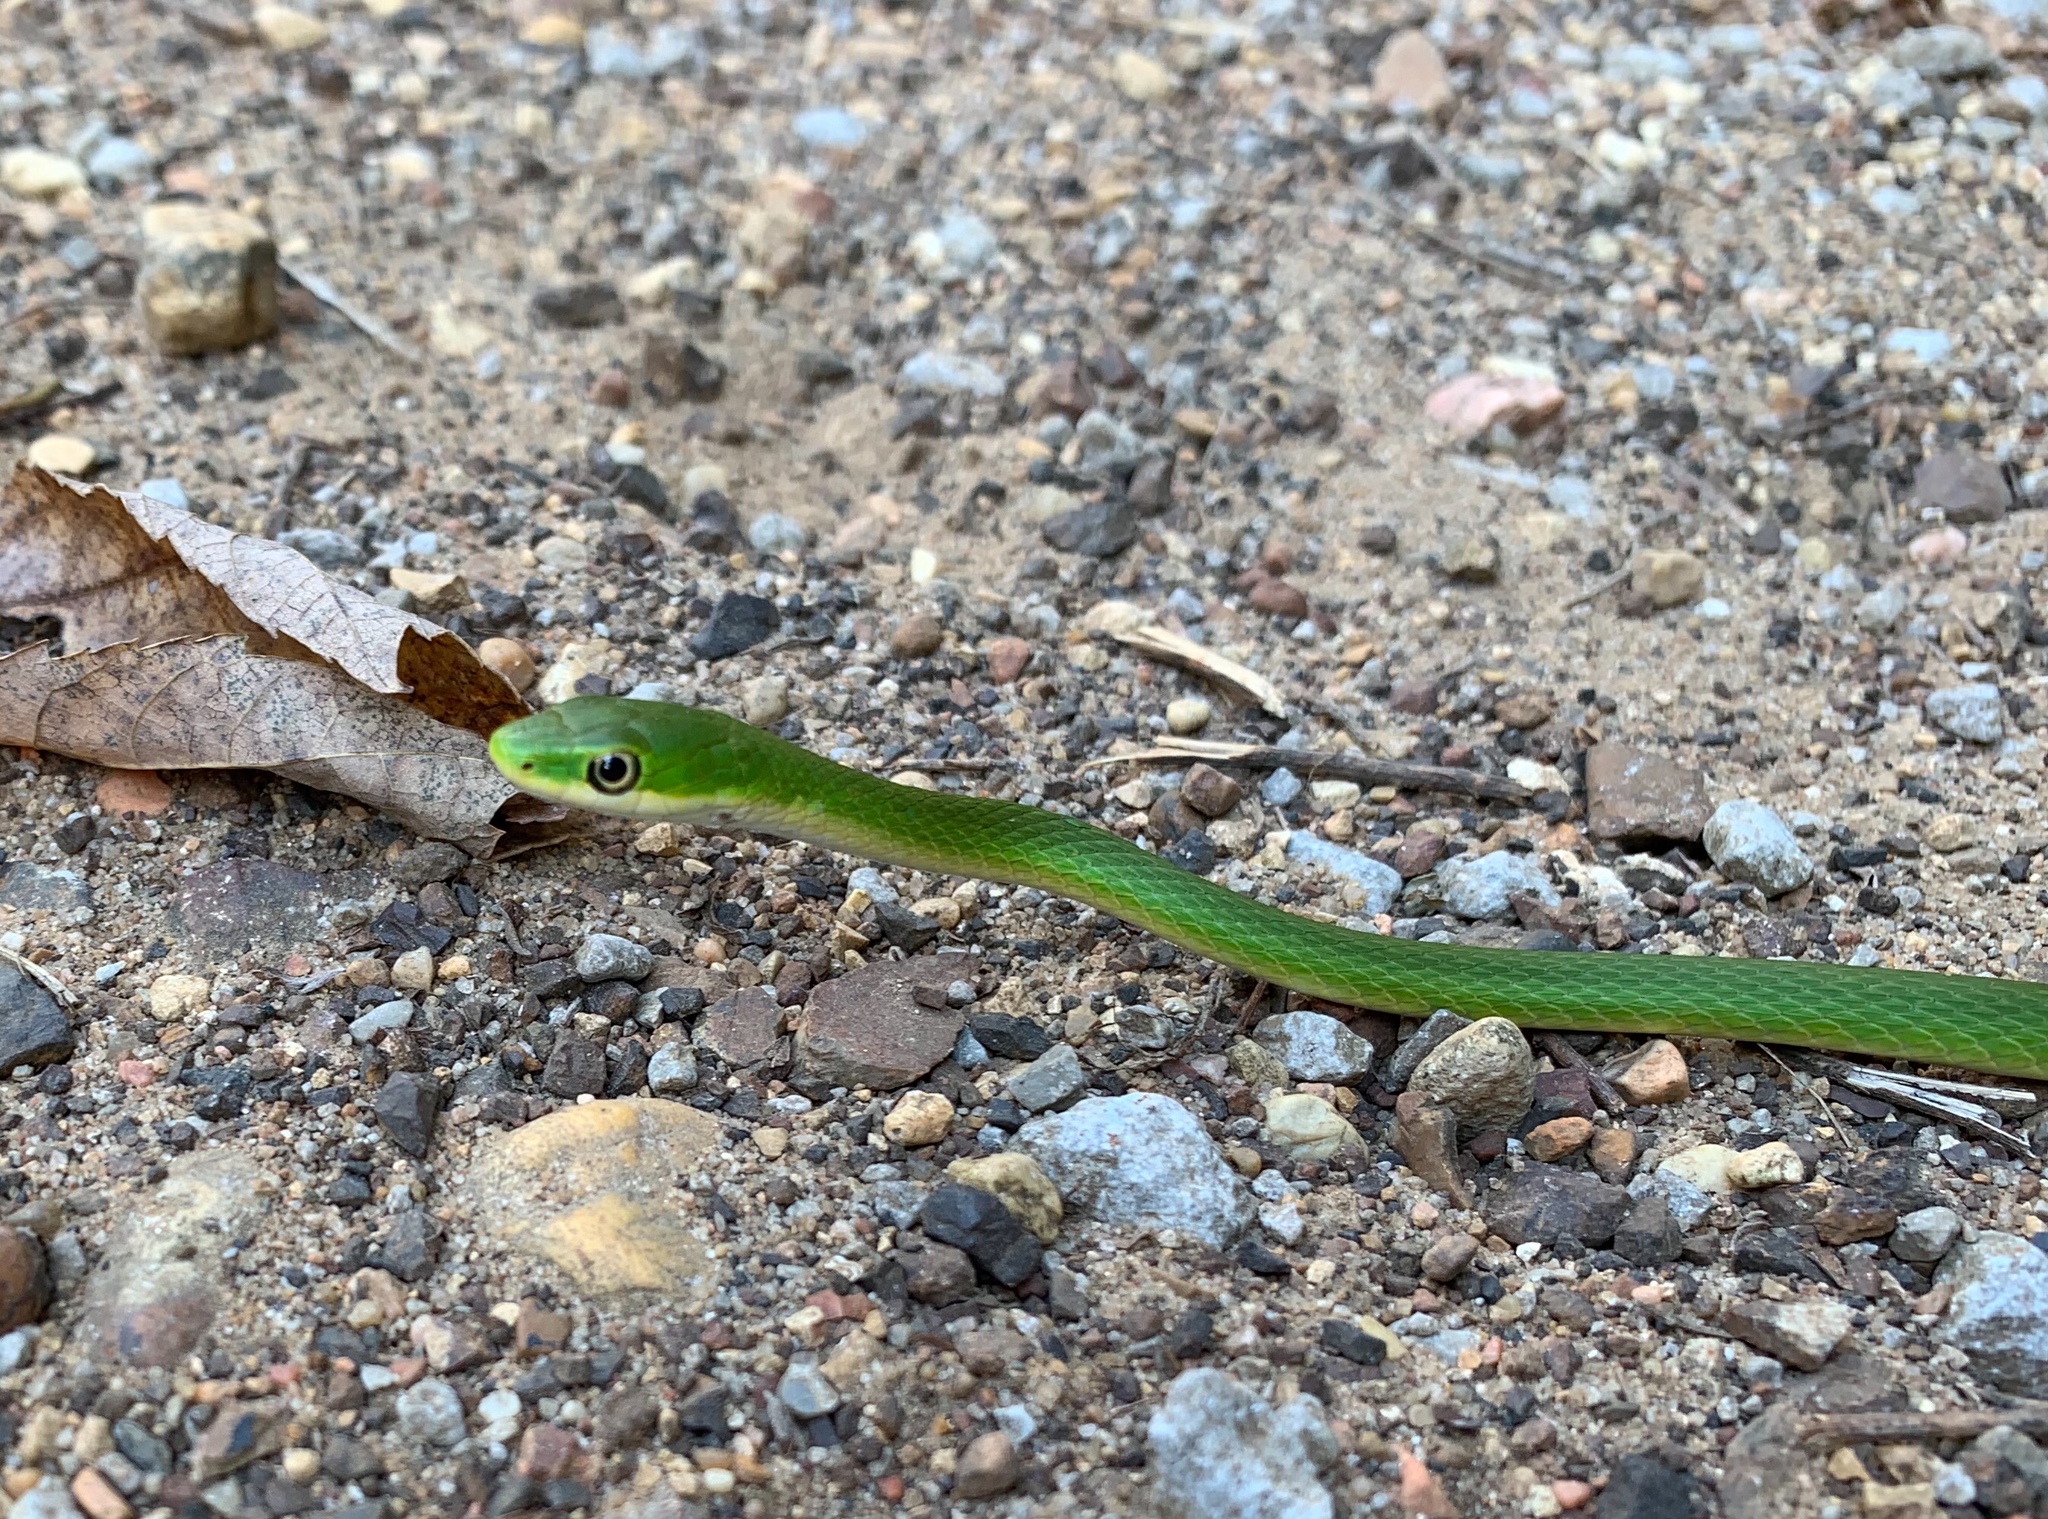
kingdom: Animalia
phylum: Chordata
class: Squamata
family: Colubridae
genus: Opheodrys
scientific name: Opheodrys aestivus
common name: Rough greensnake
